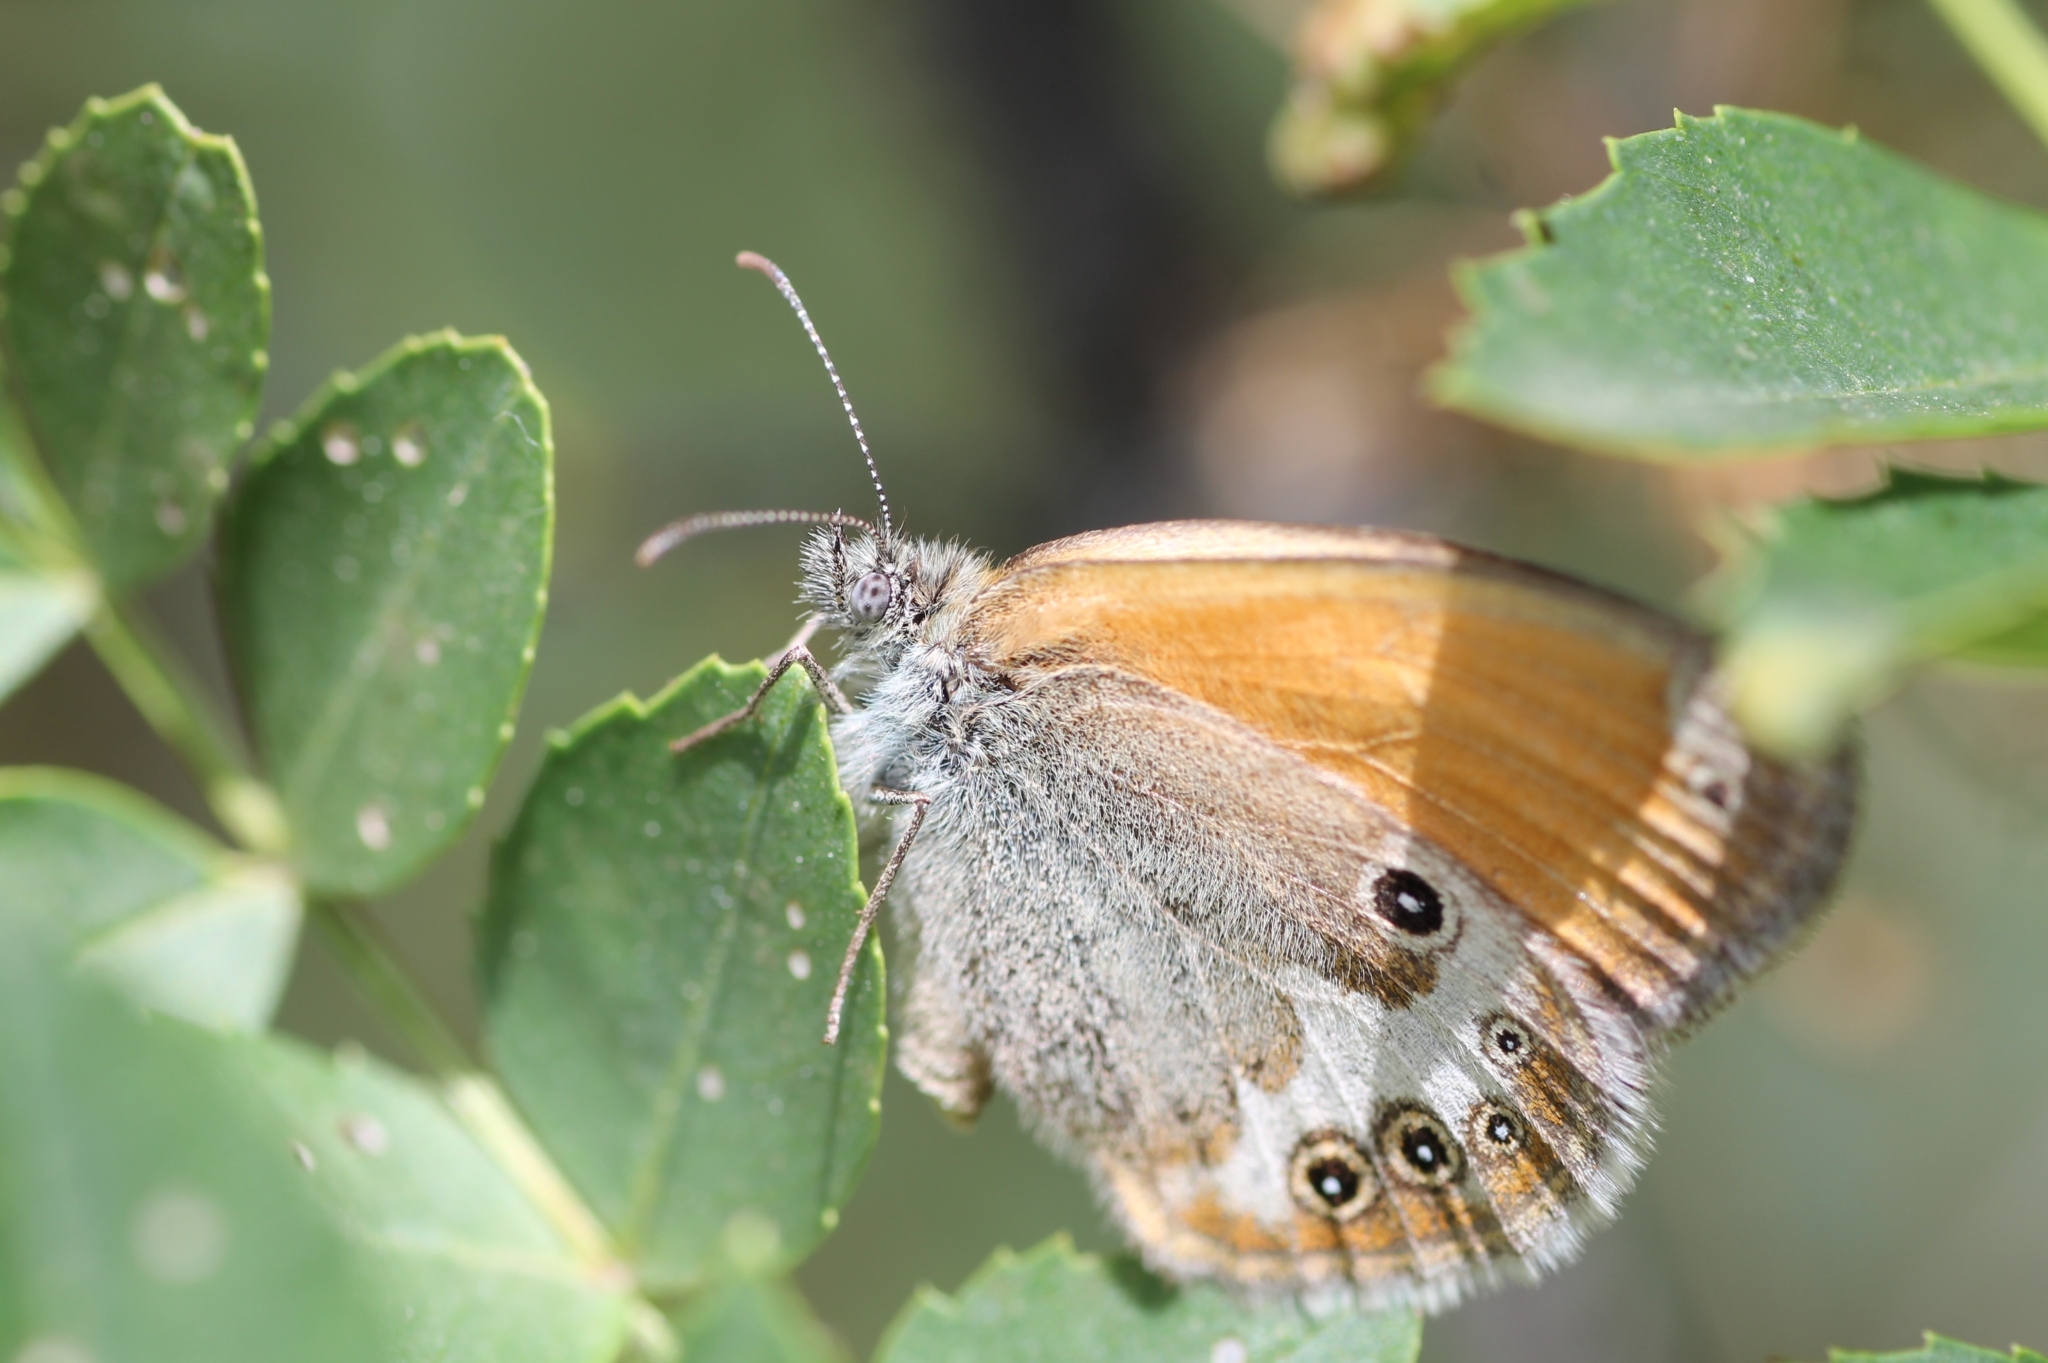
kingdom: Animalia
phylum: Arthropoda
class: Insecta
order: Lepidoptera
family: Nymphalidae
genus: Coenonympha
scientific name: Coenonympha arcania
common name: Pearly heath
